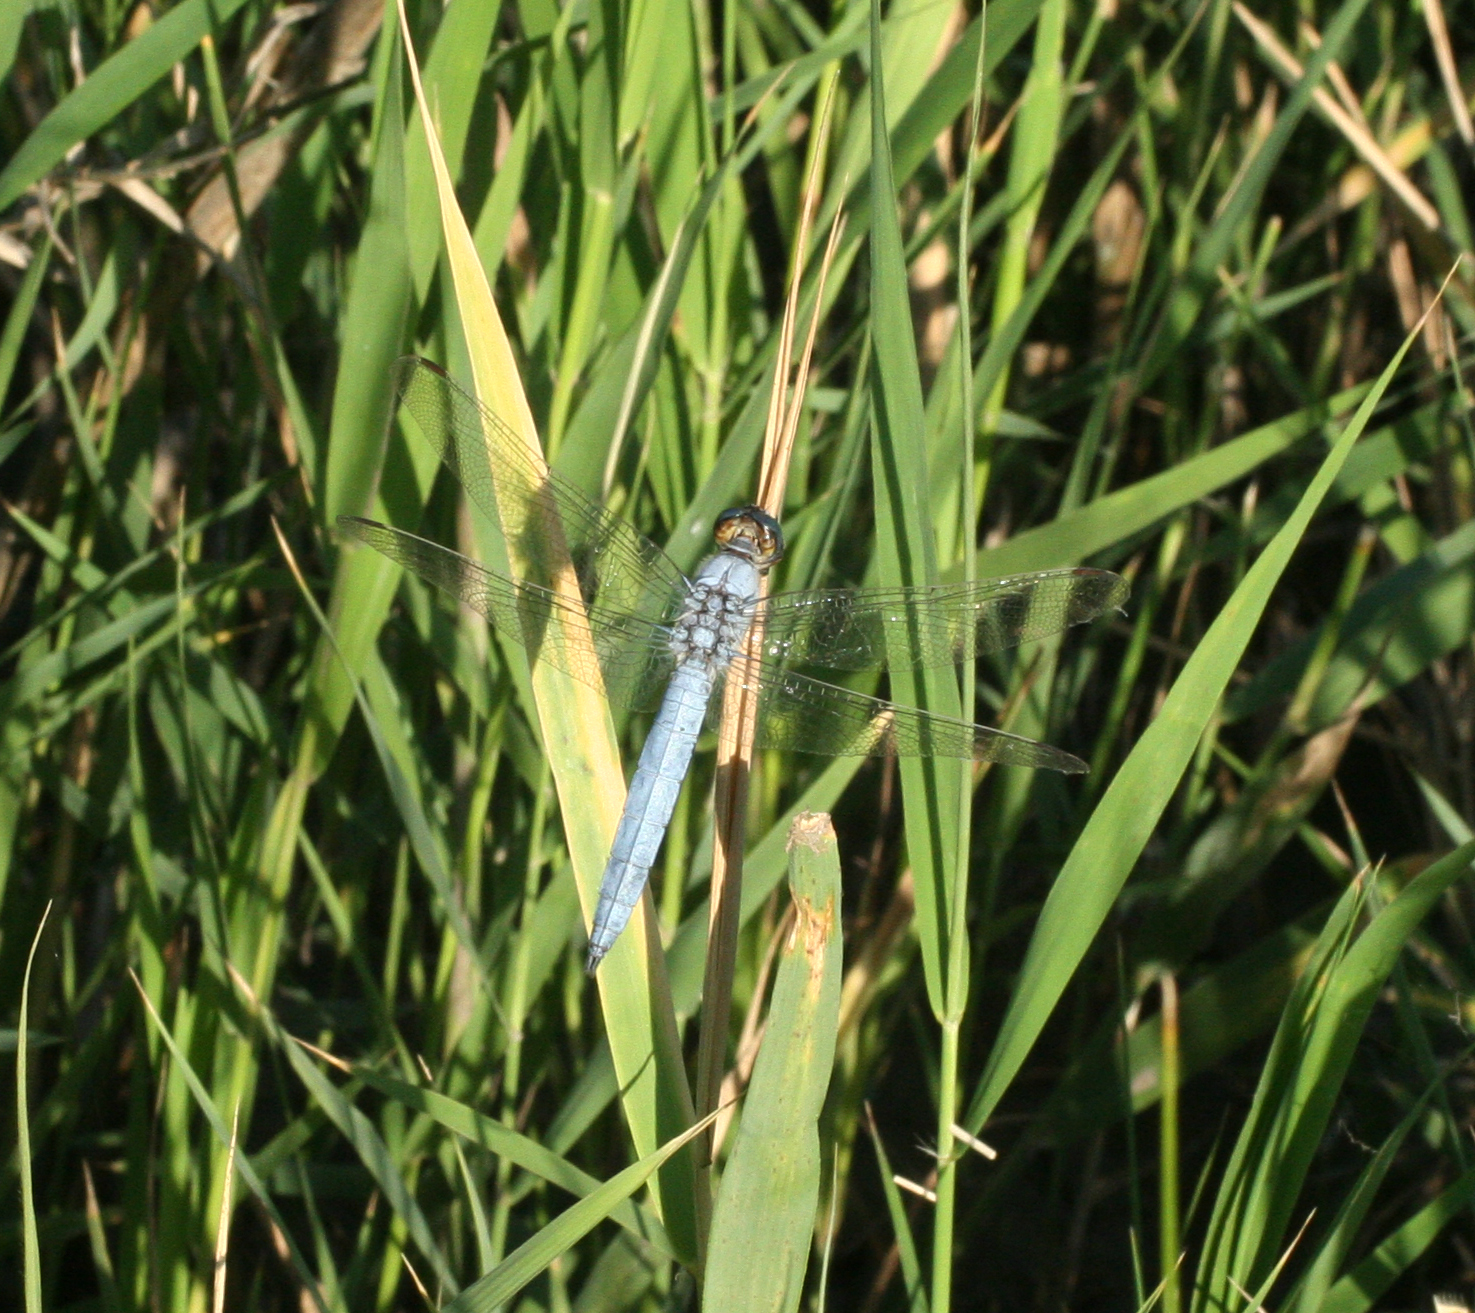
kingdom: Animalia
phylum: Arthropoda
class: Insecta
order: Odonata
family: Libellulidae
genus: Orthetrum
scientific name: Orthetrum brunneum
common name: Southern skimmer
